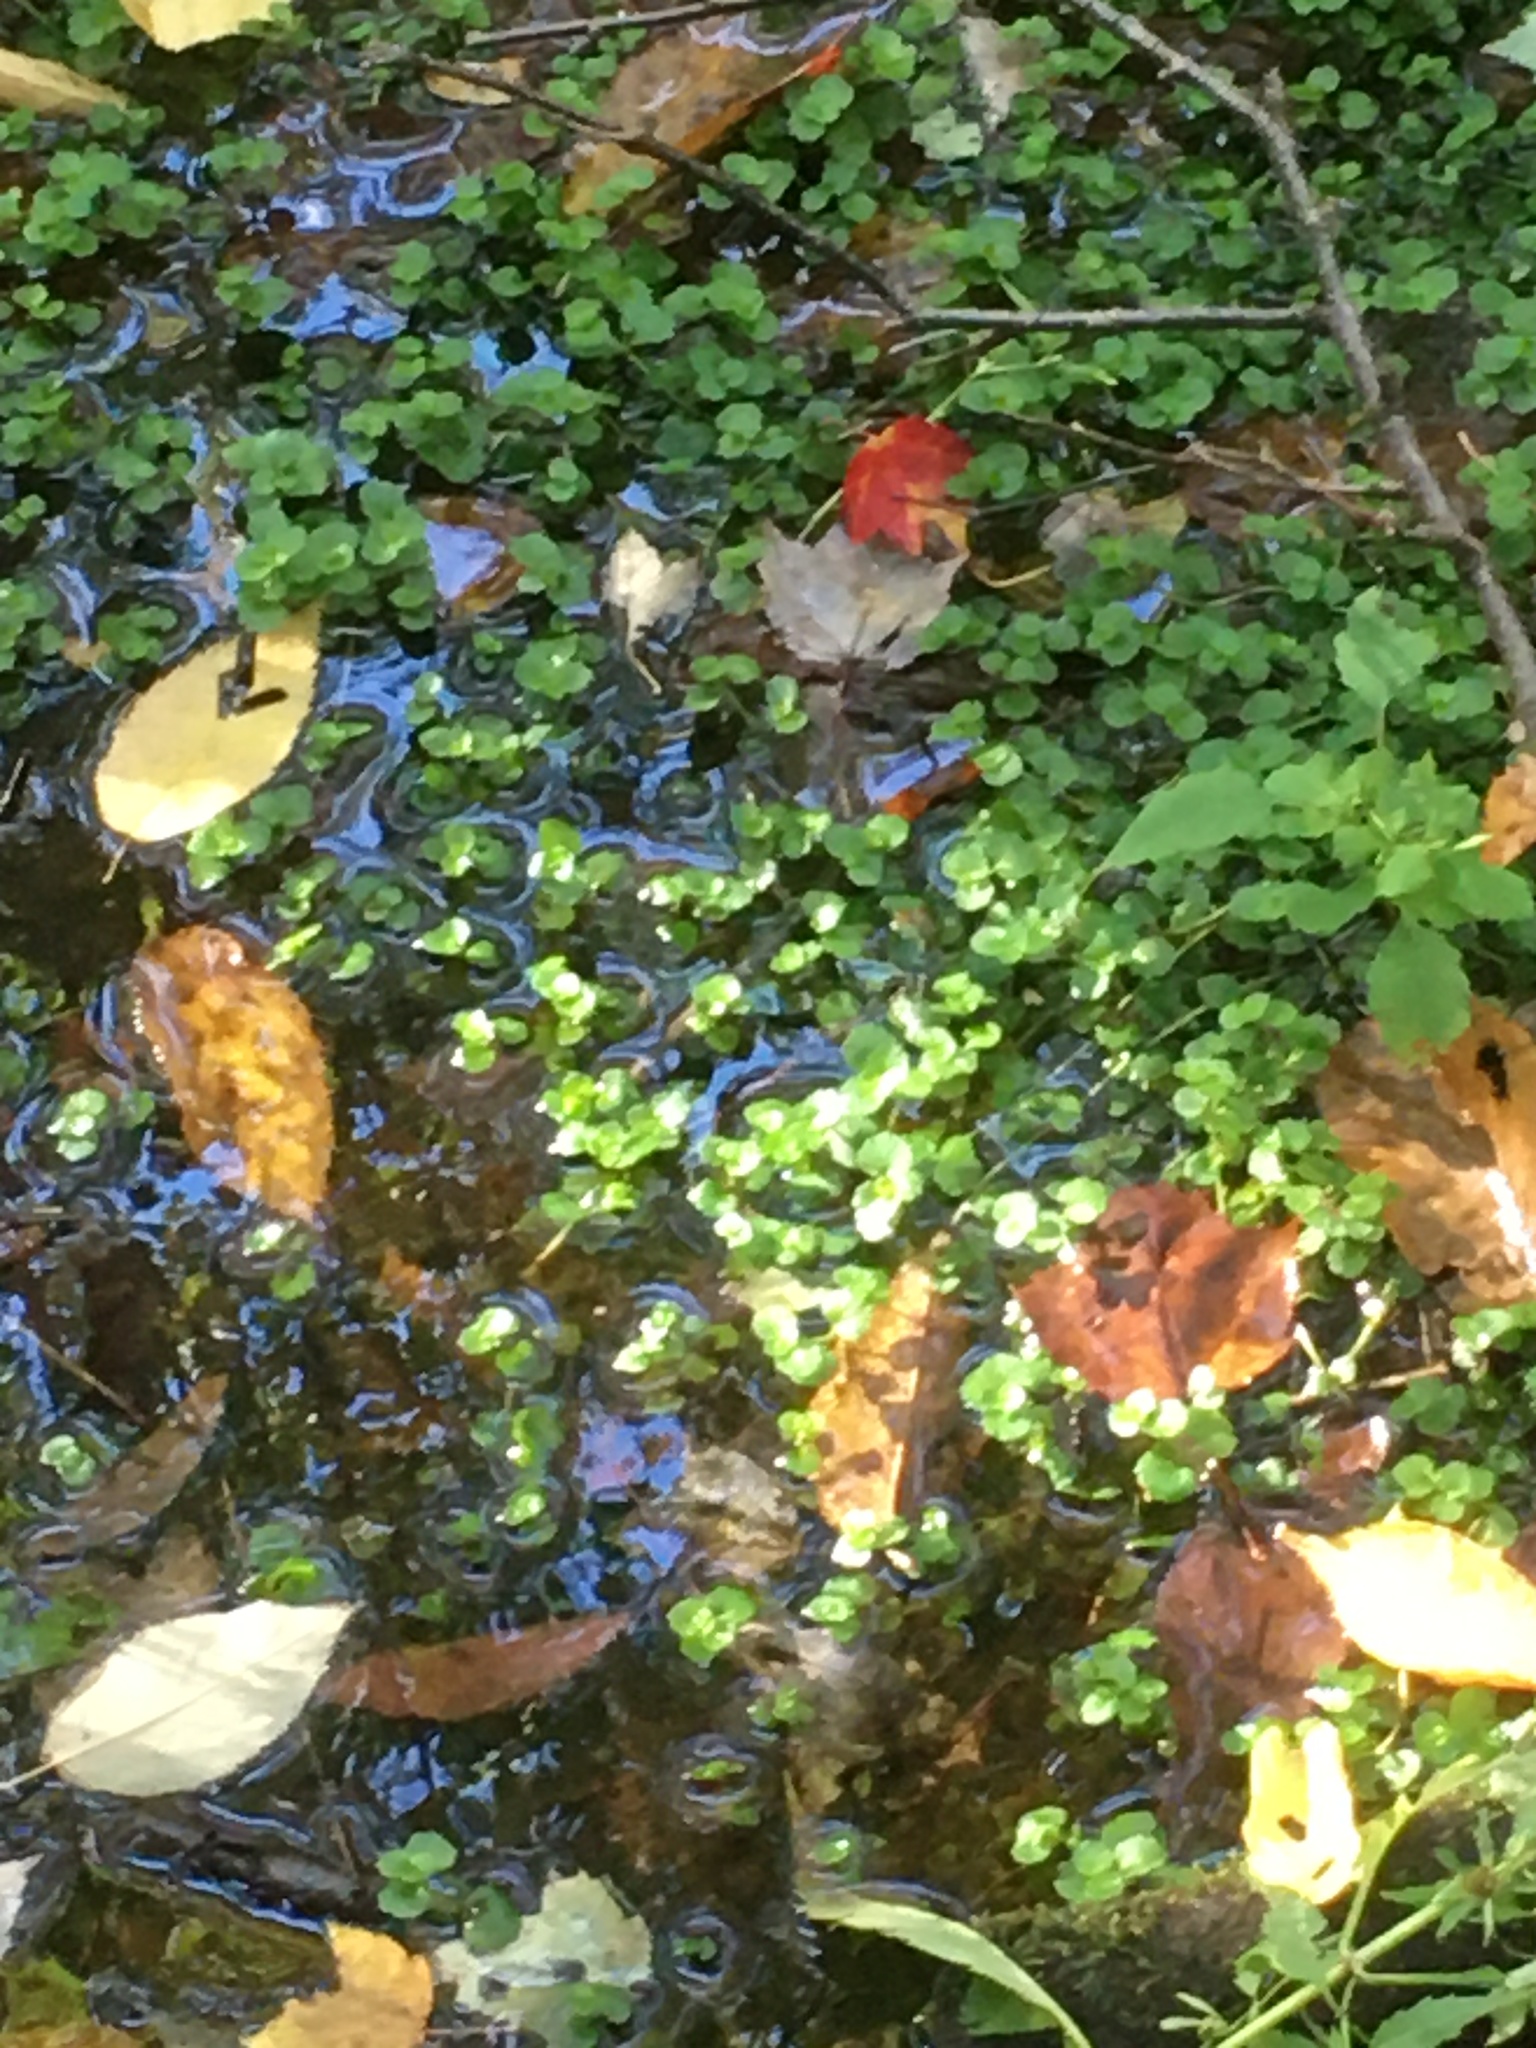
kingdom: Plantae
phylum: Tracheophyta
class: Magnoliopsida
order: Saxifragales
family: Saxifragaceae
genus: Chrysosplenium
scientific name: Chrysosplenium americanum
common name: American golden-saxifrage
